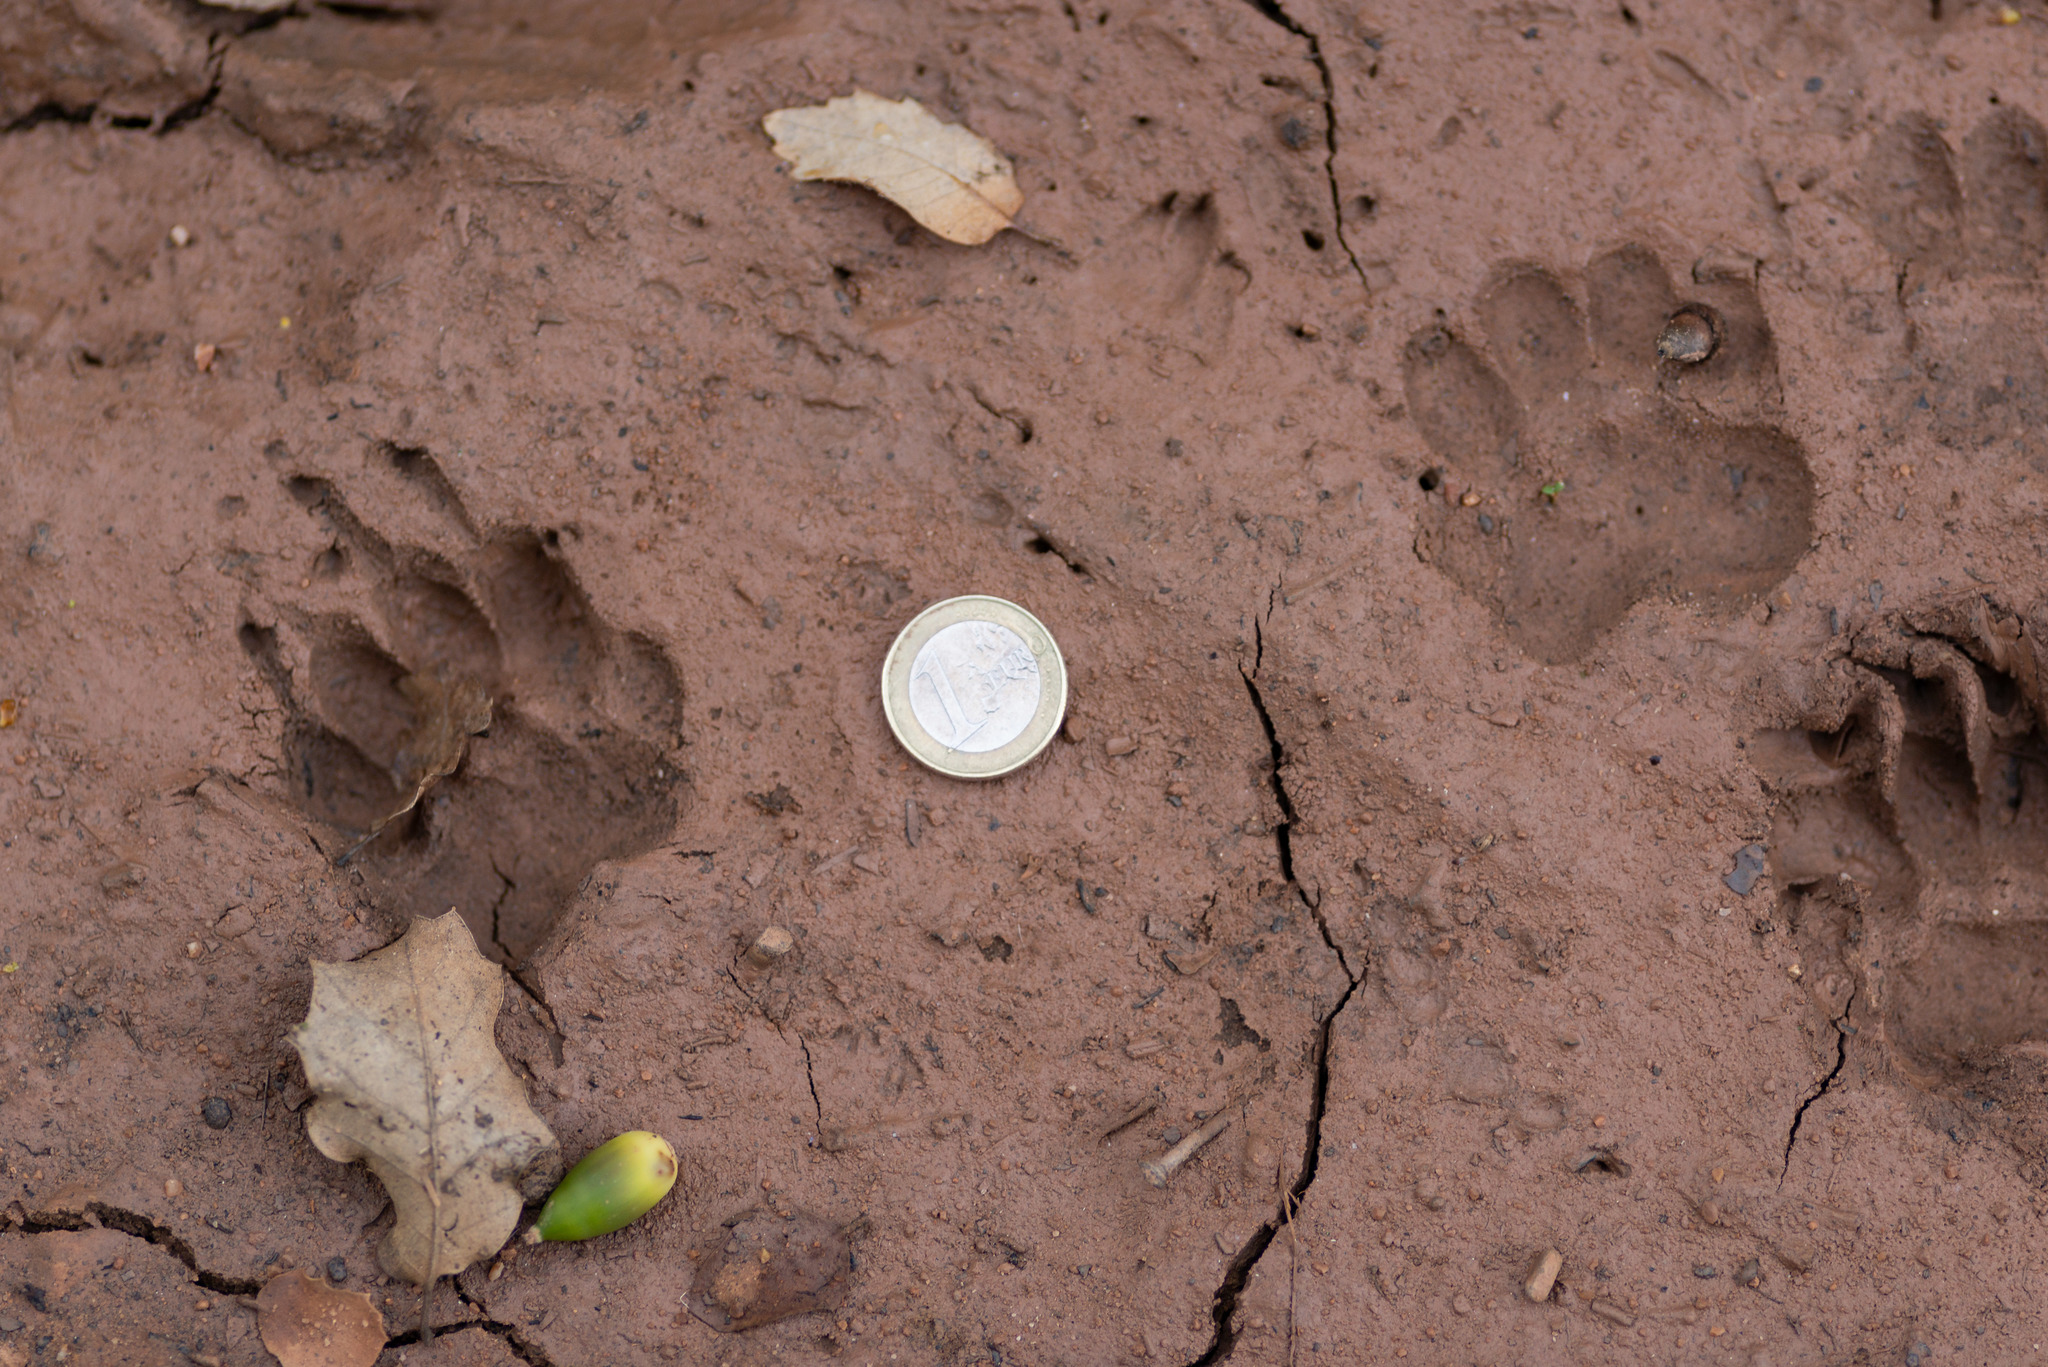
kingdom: Animalia
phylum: Chordata
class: Mammalia
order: Carnivora
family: Mustelidae
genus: Meles
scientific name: Meles meles
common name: Eurasian badger
